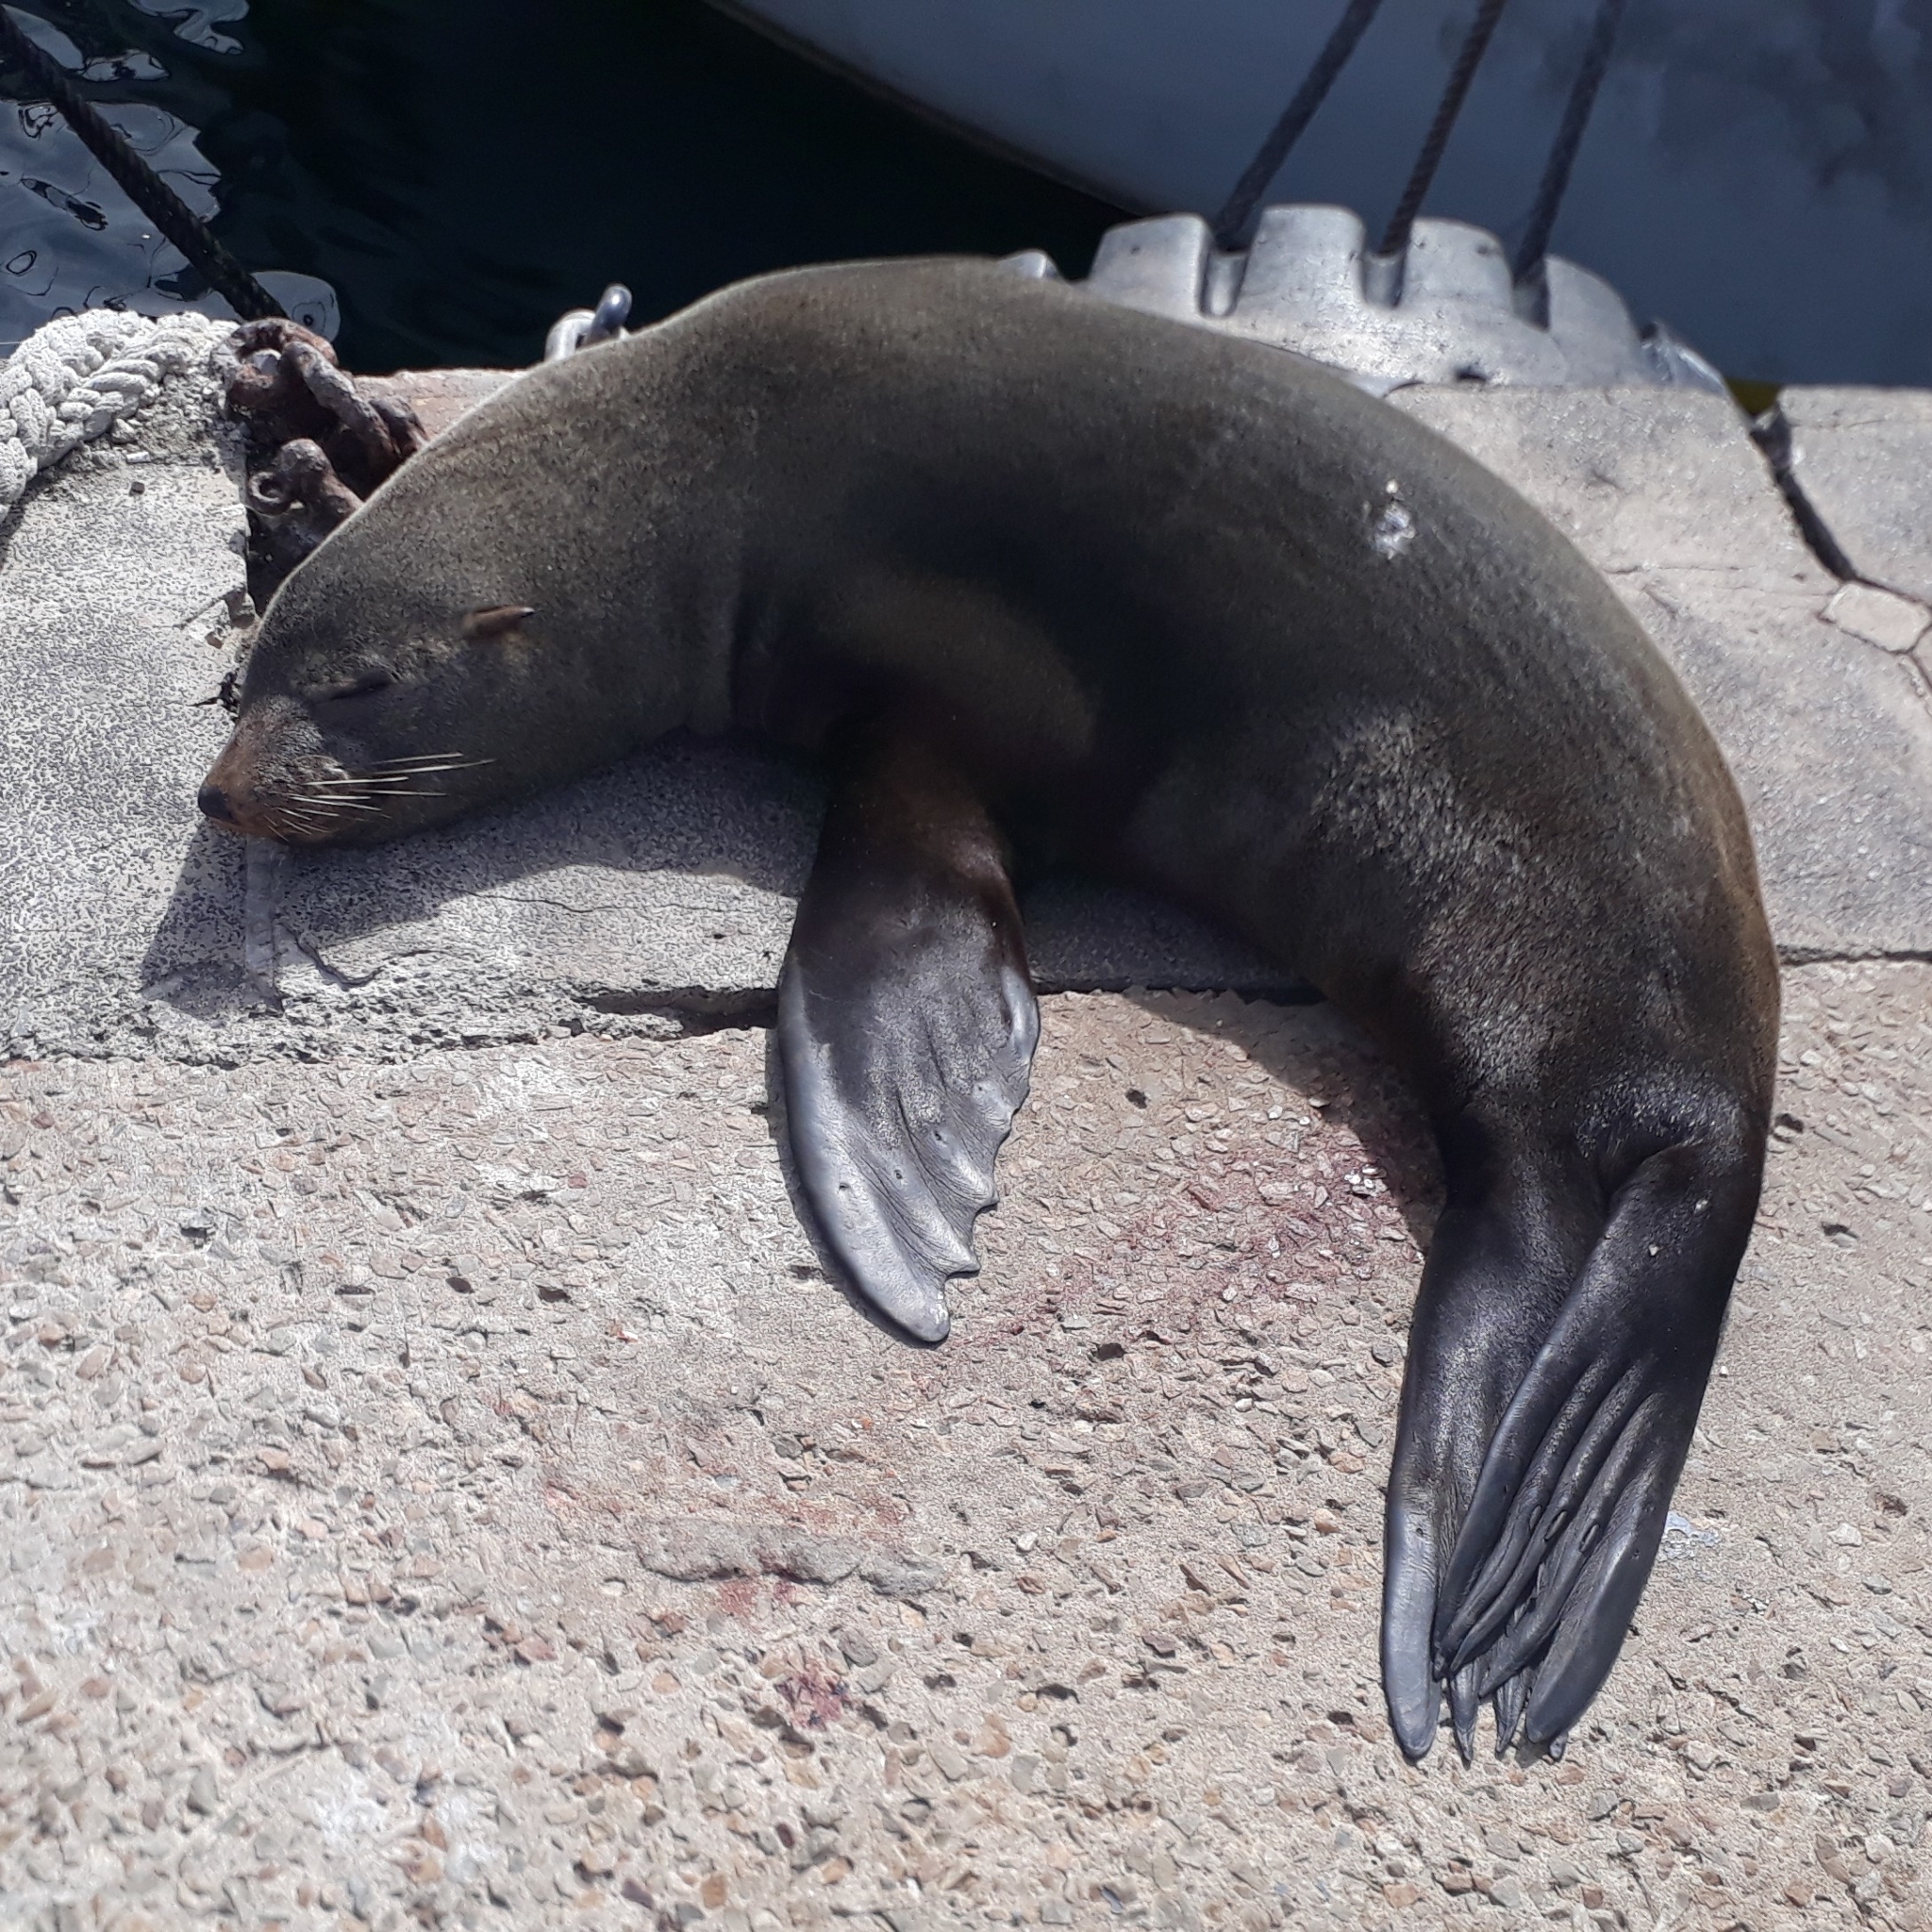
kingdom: Animalia
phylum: Chordata
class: Mammalia
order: Carnivora
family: Otariidae
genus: Arctocephalus
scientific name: Arctocephalus pusillus
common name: Brown fur seal
